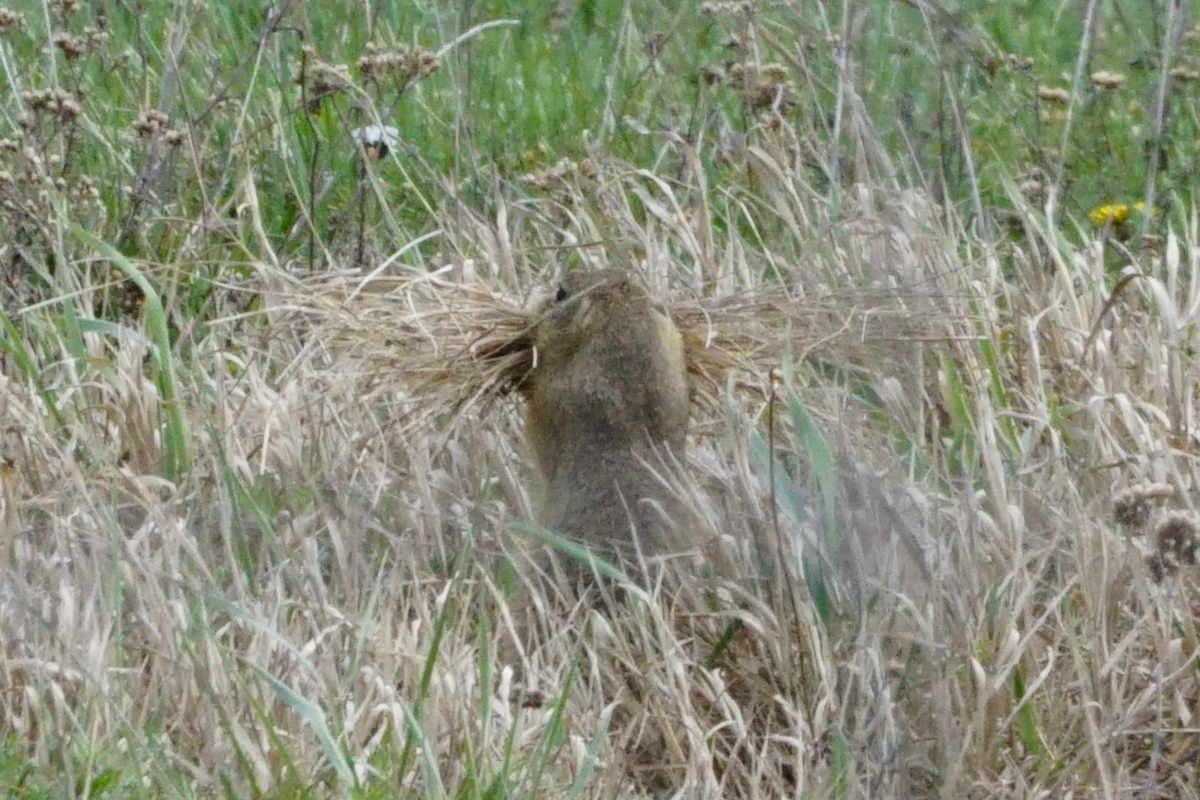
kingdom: Animalia
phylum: Chordata
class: Mammalia
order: Rodentia
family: Sciuridae
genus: Spermophilus
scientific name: Spermophilus citellus
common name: European ground squirrel
